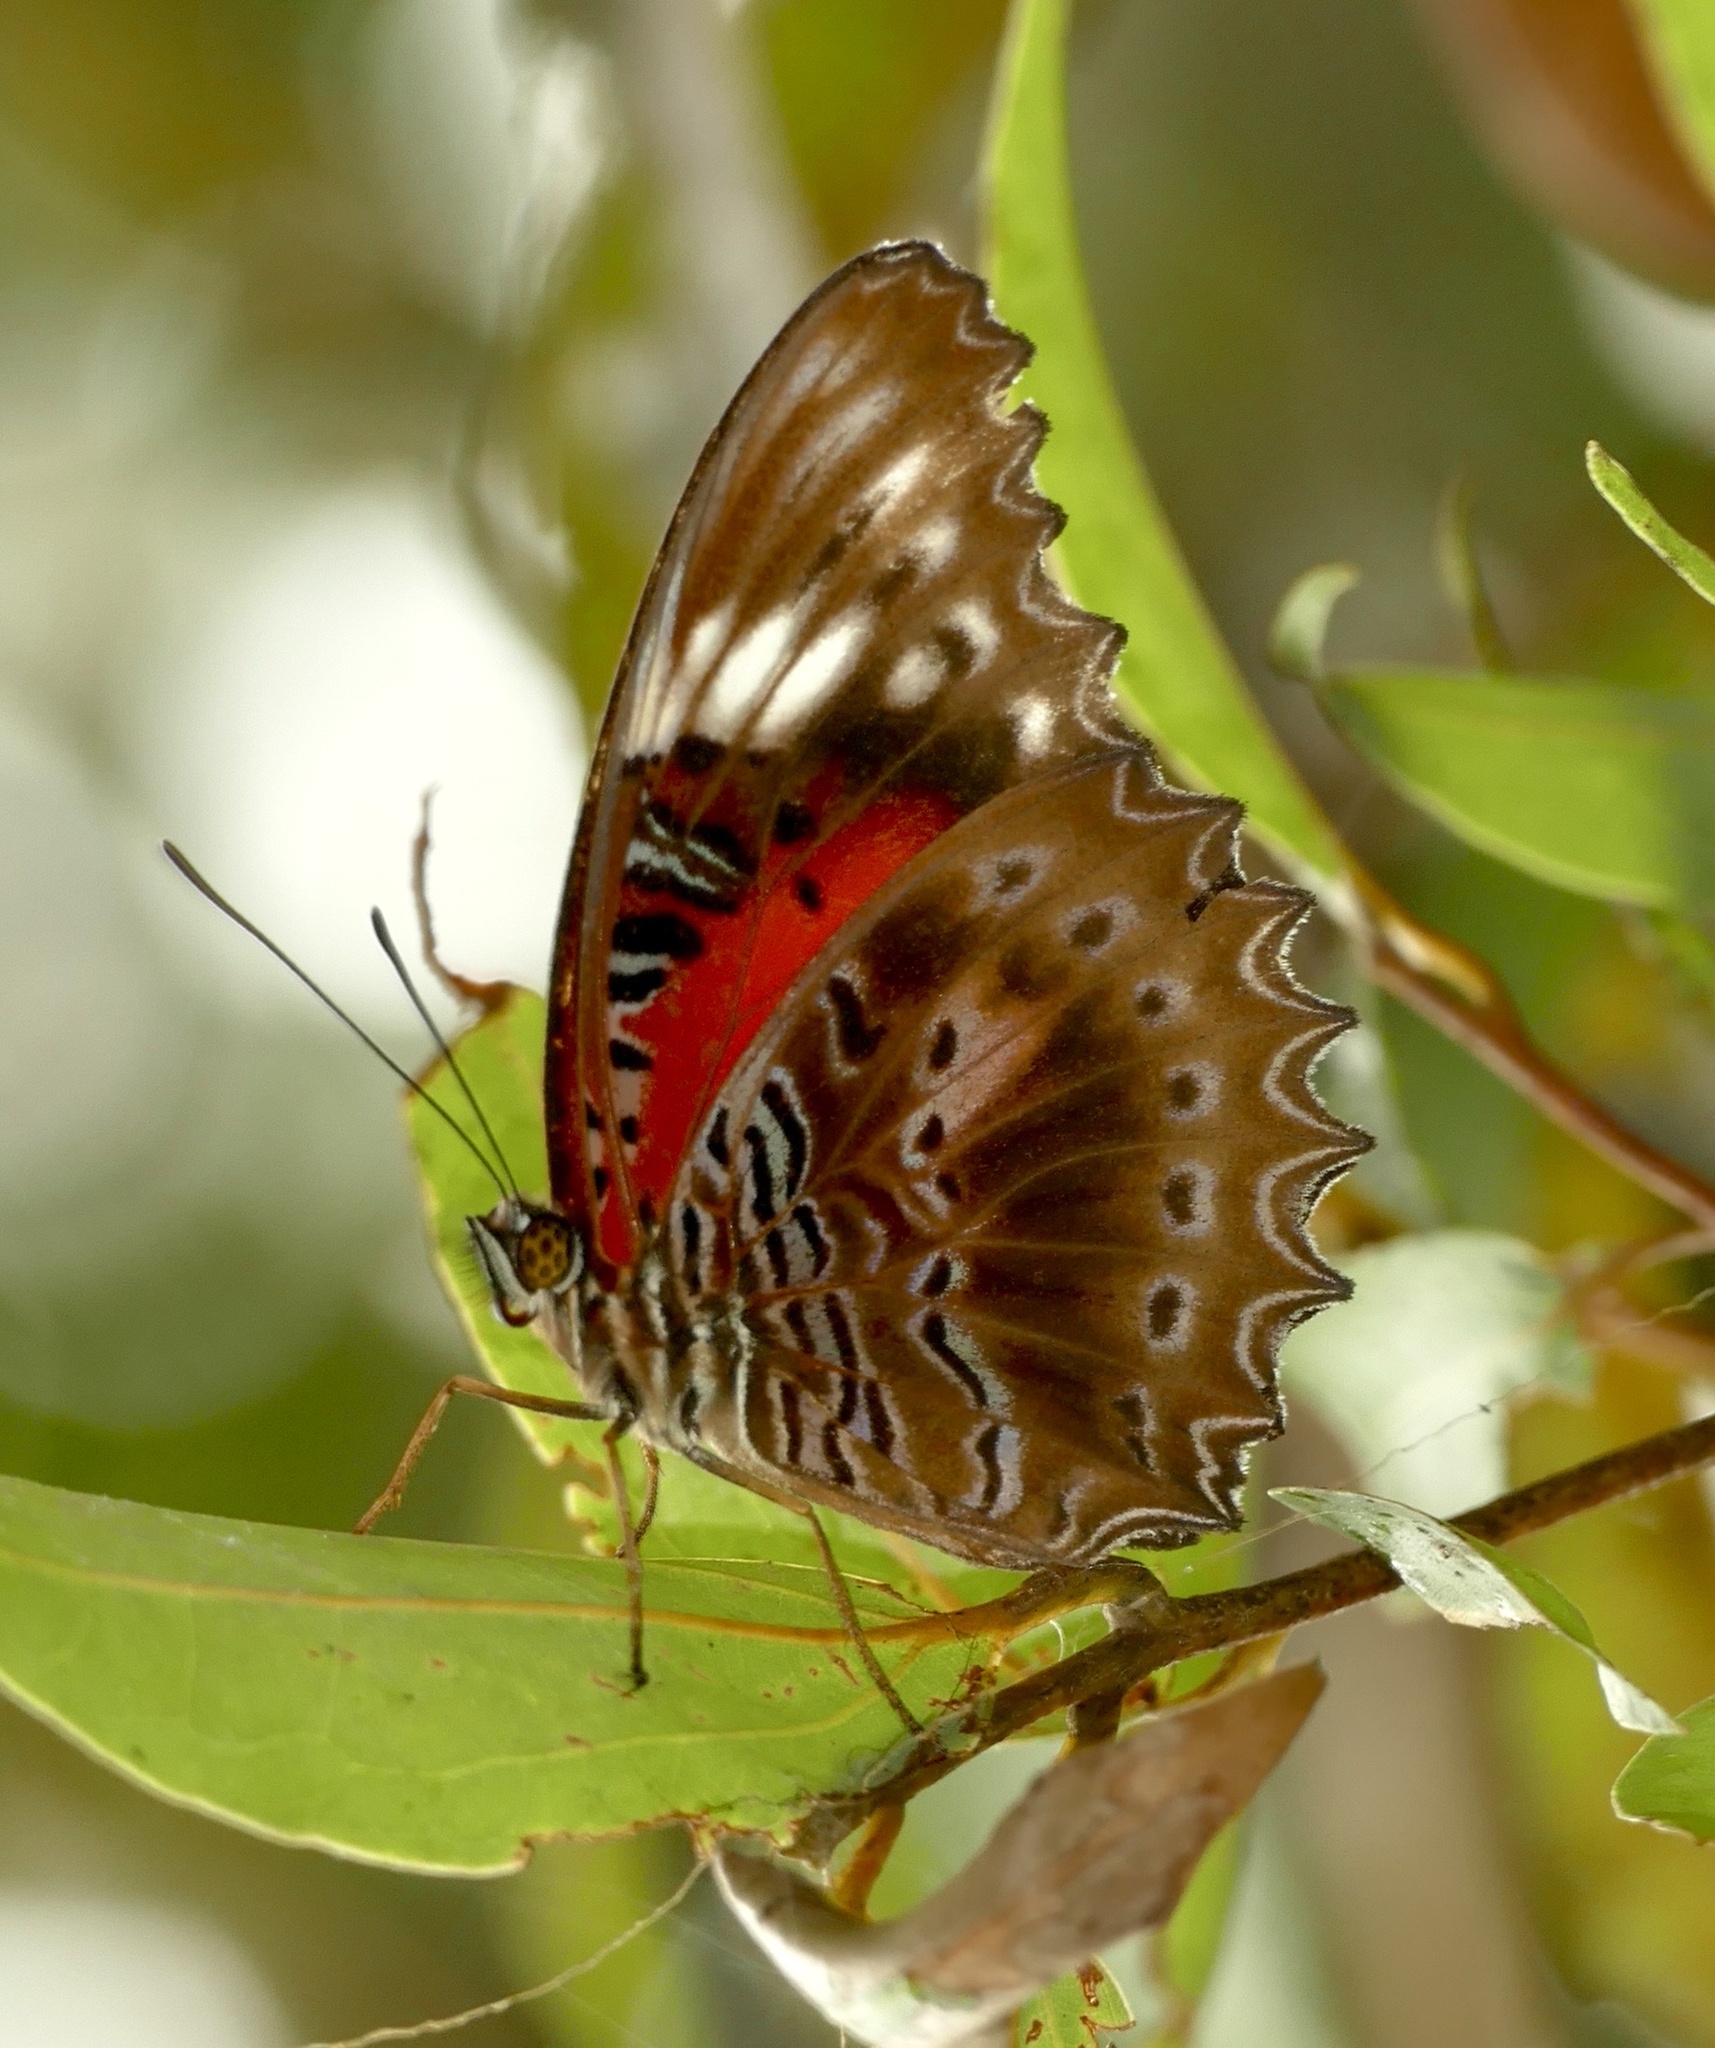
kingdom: Animalia
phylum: Arthropoda
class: Insecta
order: Lepidoptera
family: Nymphalidae
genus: Cethosia
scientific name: Cethosia cydippe
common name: Eastern red lacewing butterfly
